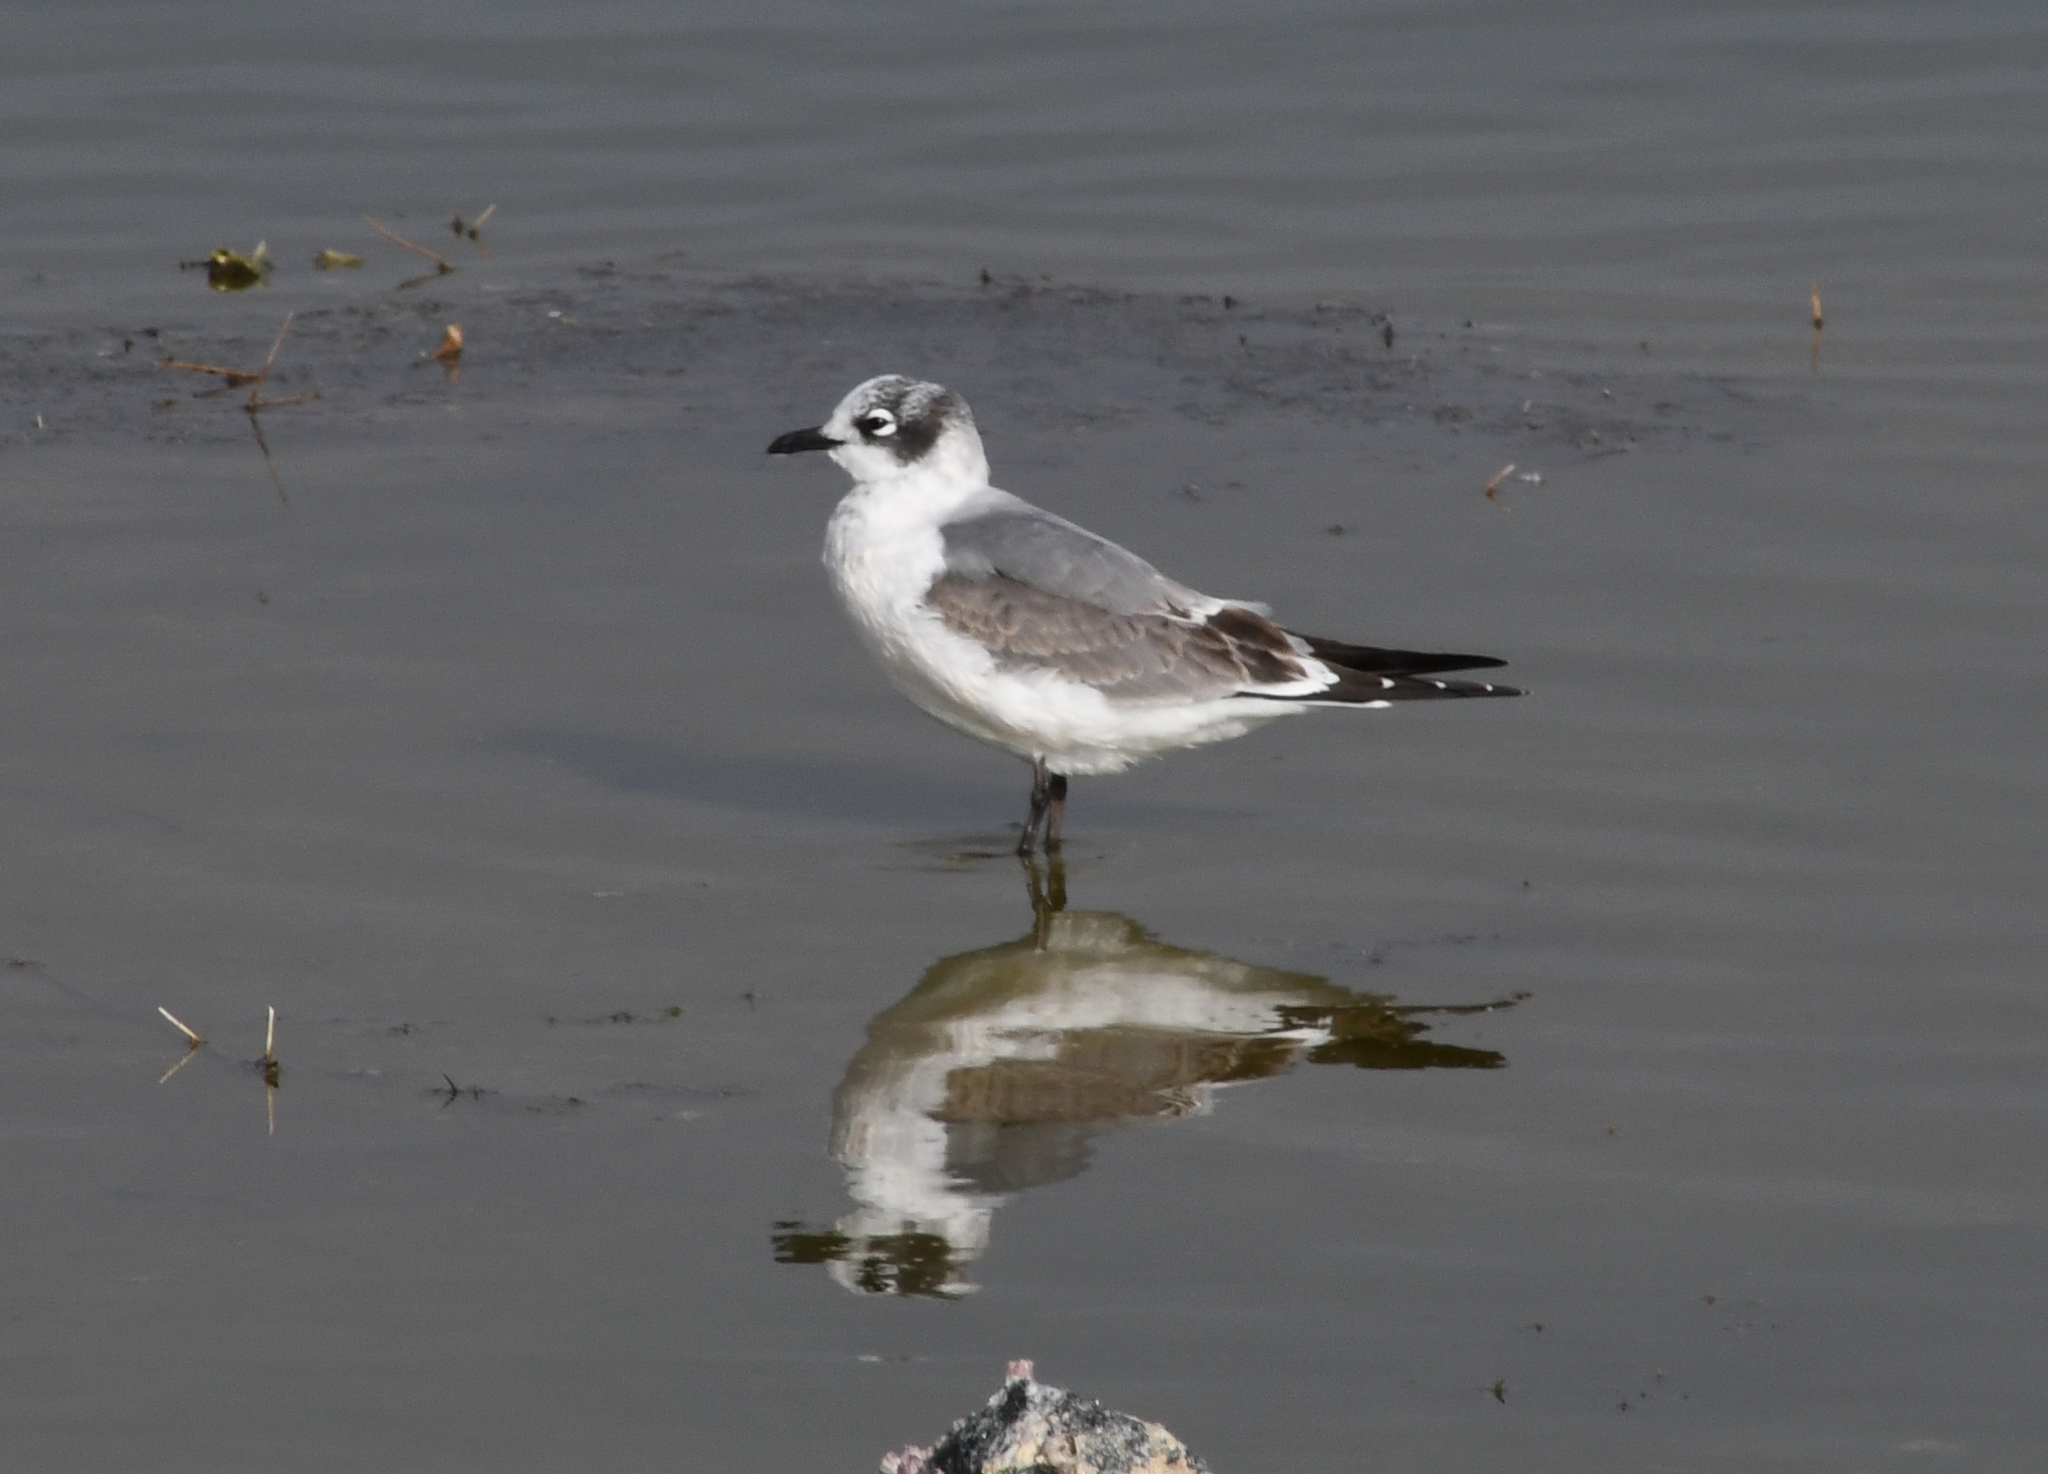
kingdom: Animalia
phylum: Chordata
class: Aves
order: Charadriiformes
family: Laridae
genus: Leucophaeus
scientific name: Leucophaeus pipixcan
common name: Franklin's gull
